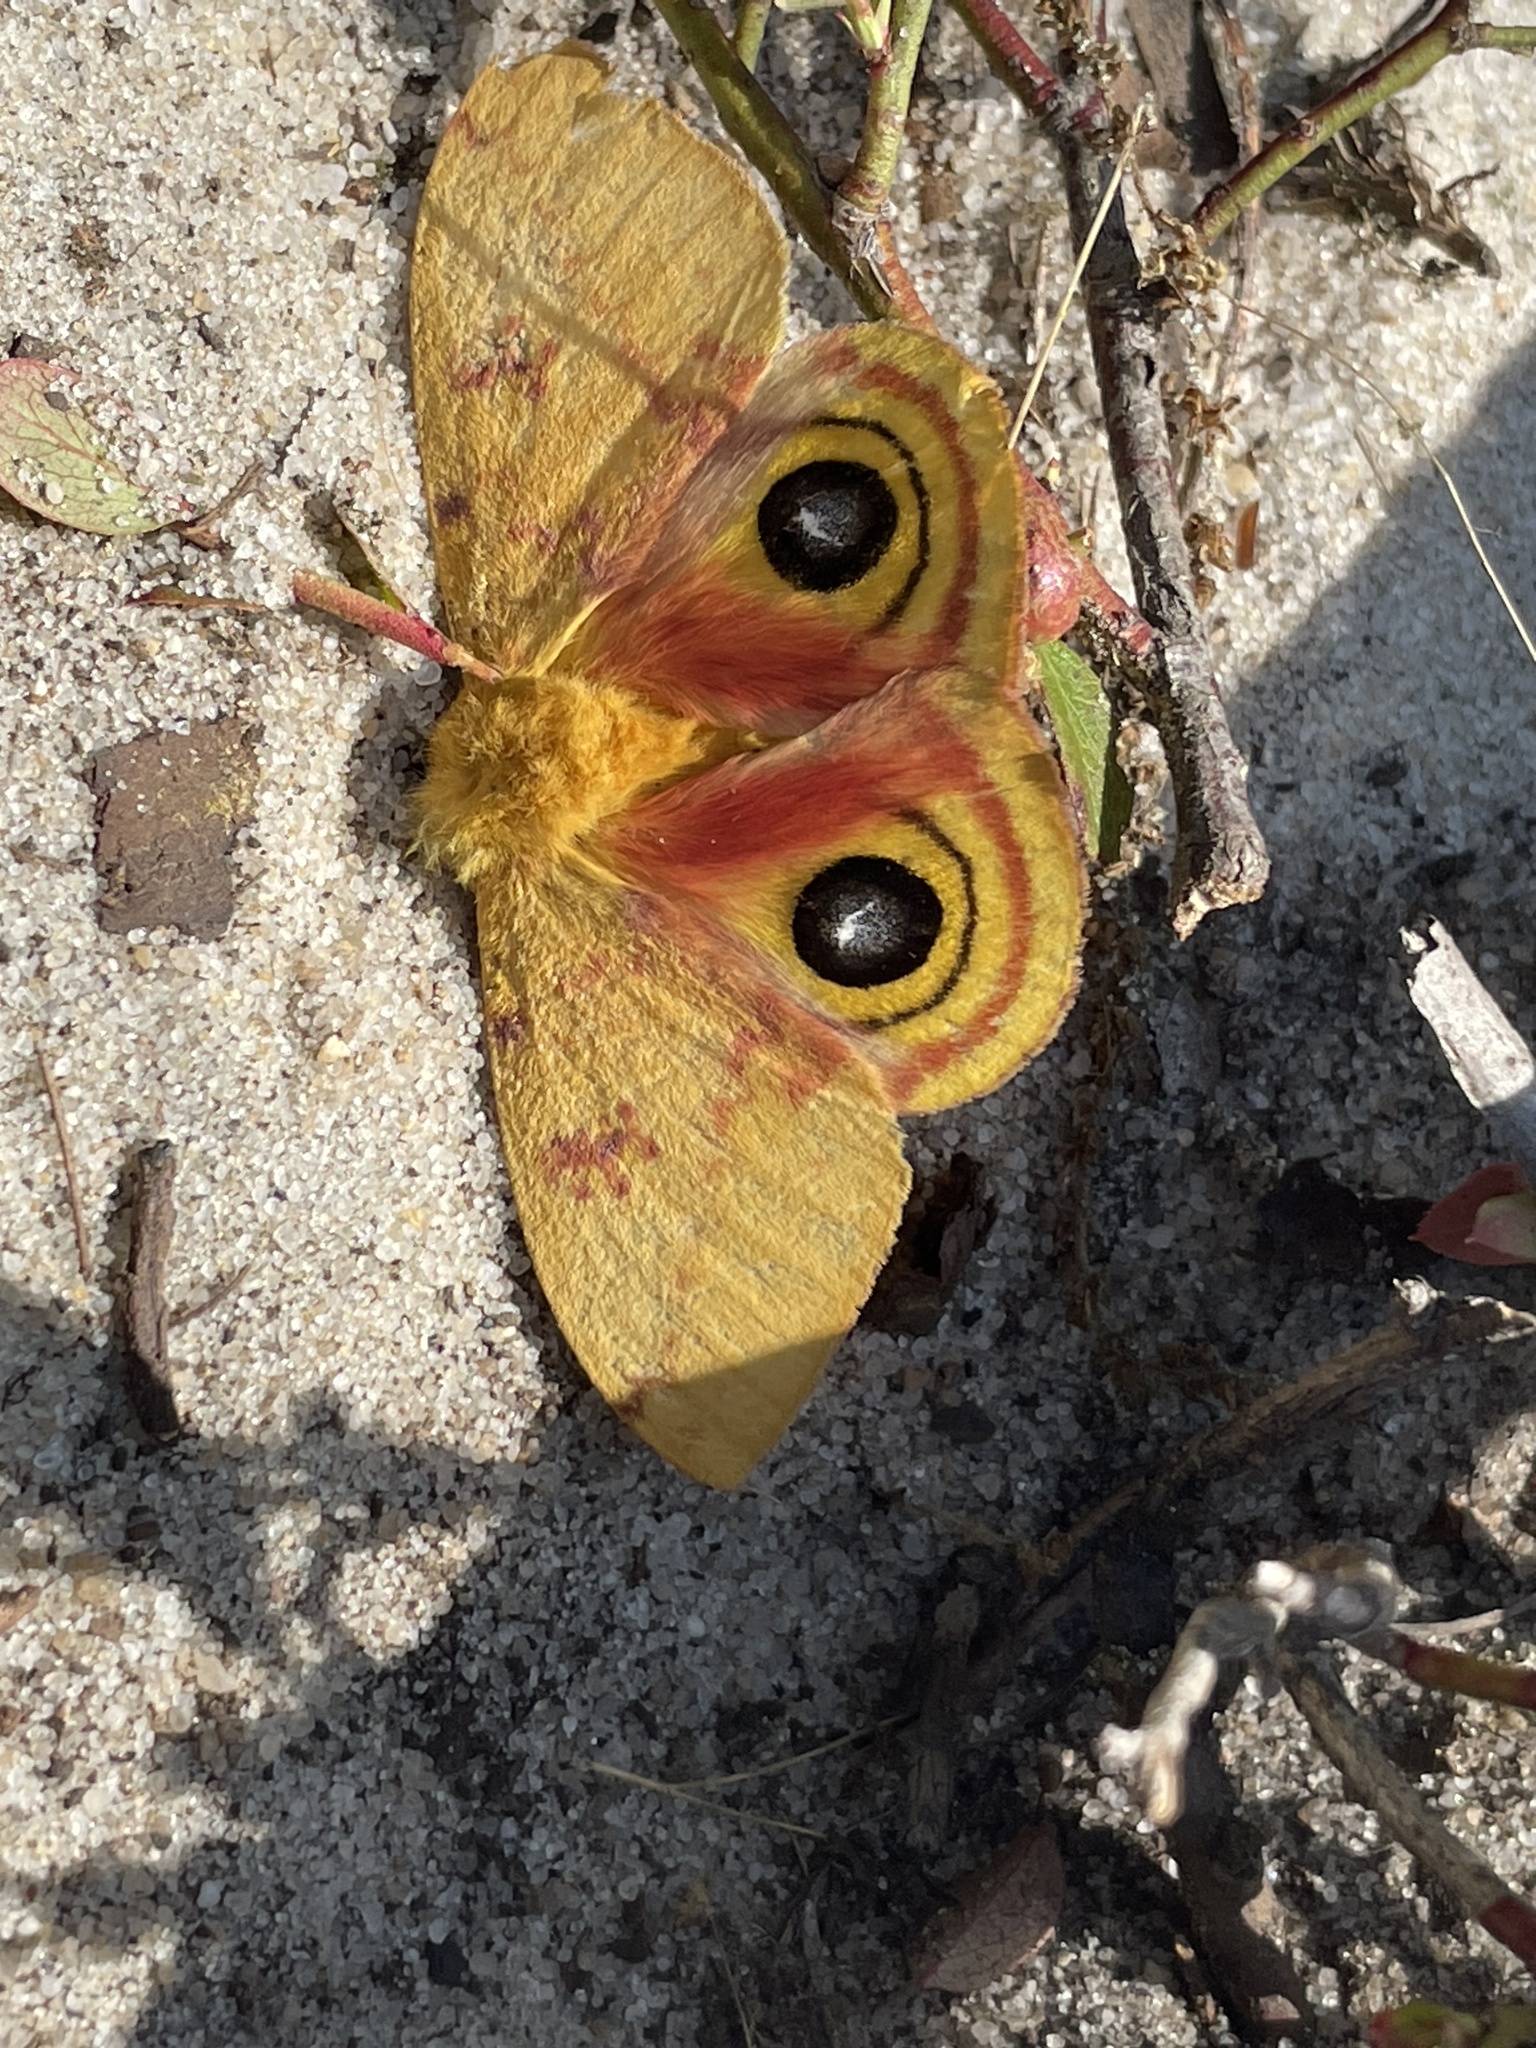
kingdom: Animalia
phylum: Arthropoda
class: Insecta
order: Lepidoptera
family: Saturniidae
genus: Automeris
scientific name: Automeris io
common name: Io moth
